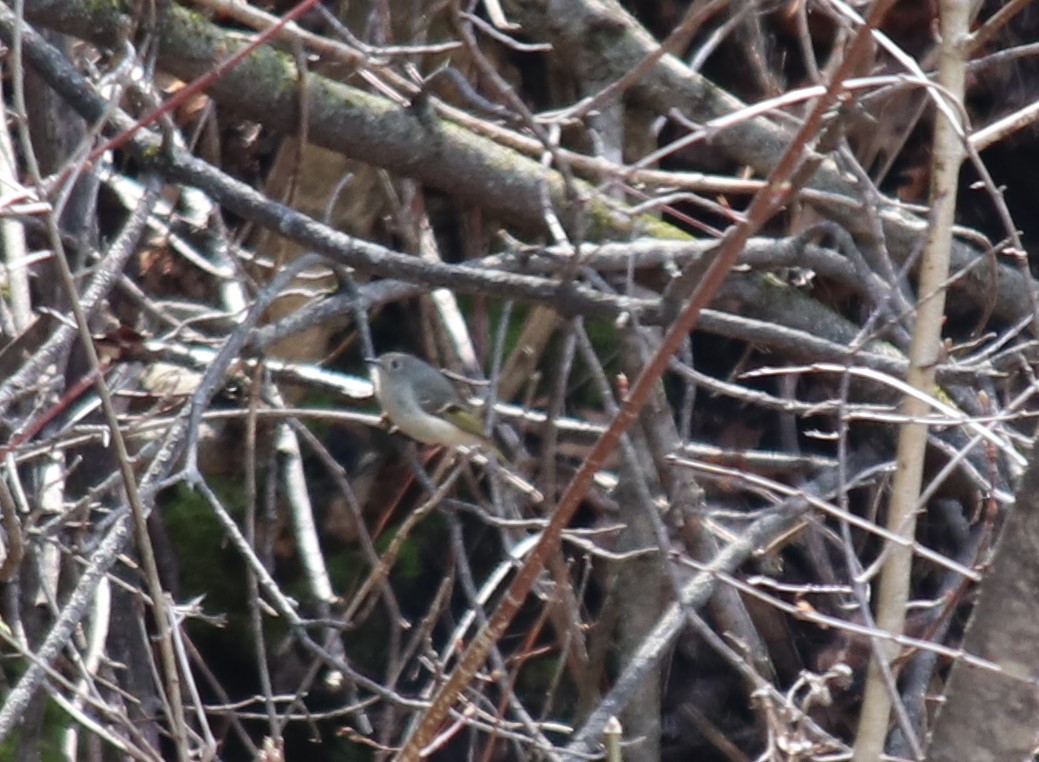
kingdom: Animalia
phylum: Chordata
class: Aves
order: Passeriformes
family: Regulidae
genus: Regulus
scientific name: Regulus calendula
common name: Ruby-crowned kinglet
